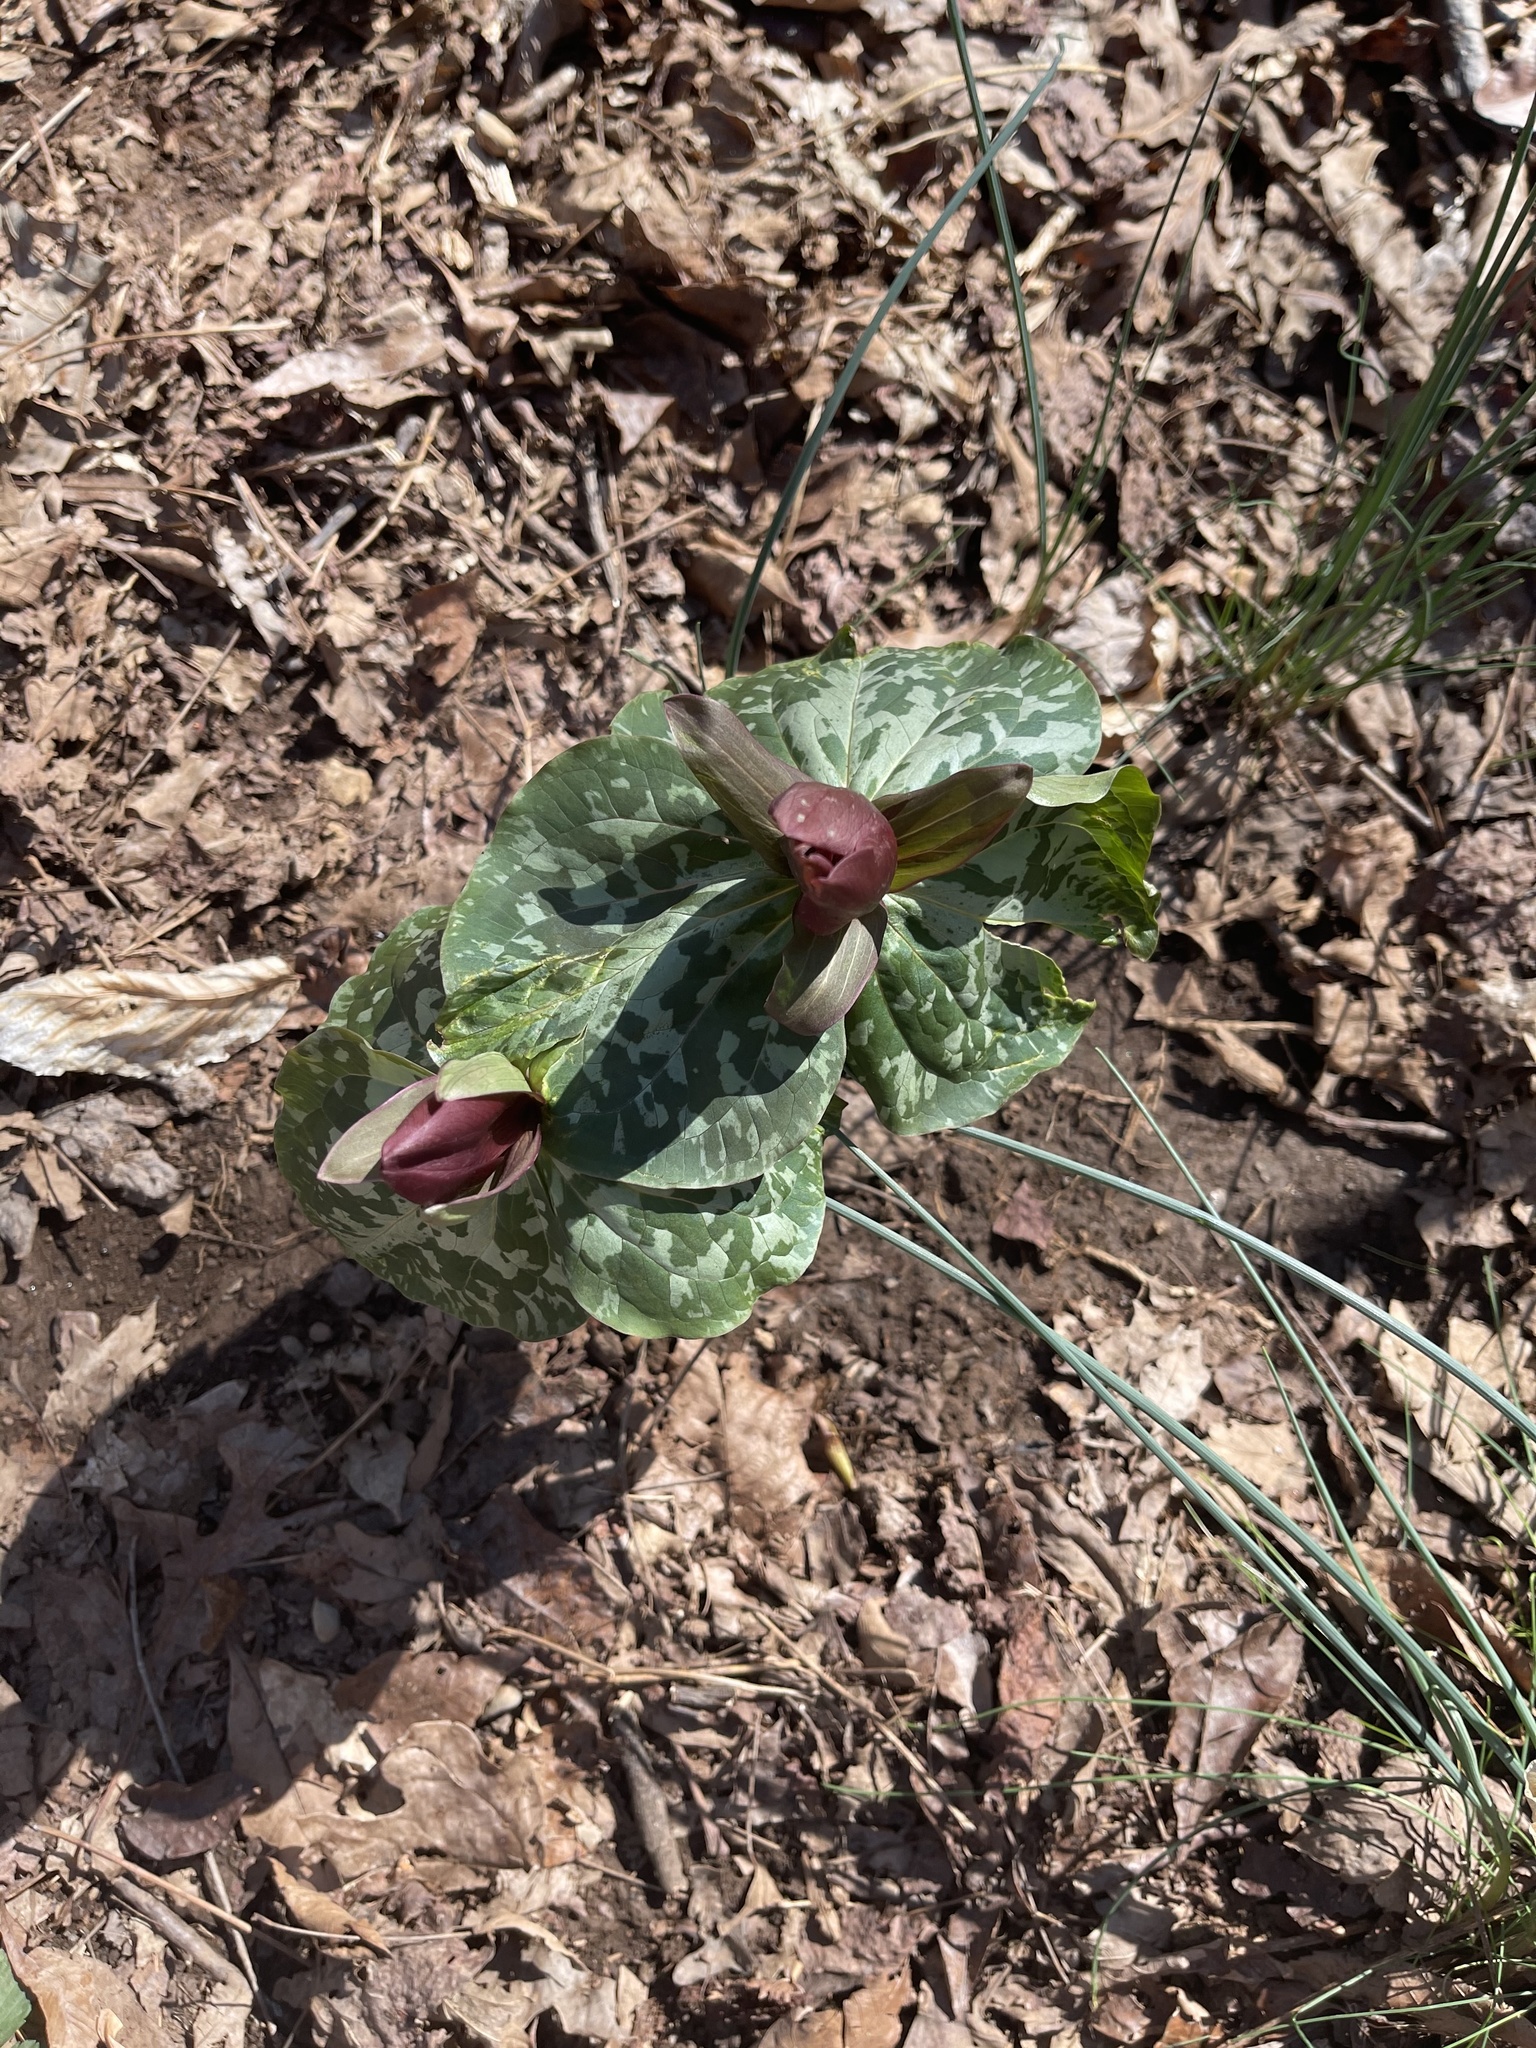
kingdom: Plantae
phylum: Tracheophyta
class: Liliopsida
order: Liliales
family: Melanthiaceae
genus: Trillium
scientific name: Trillium cuneatum
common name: Cuneate trillium
